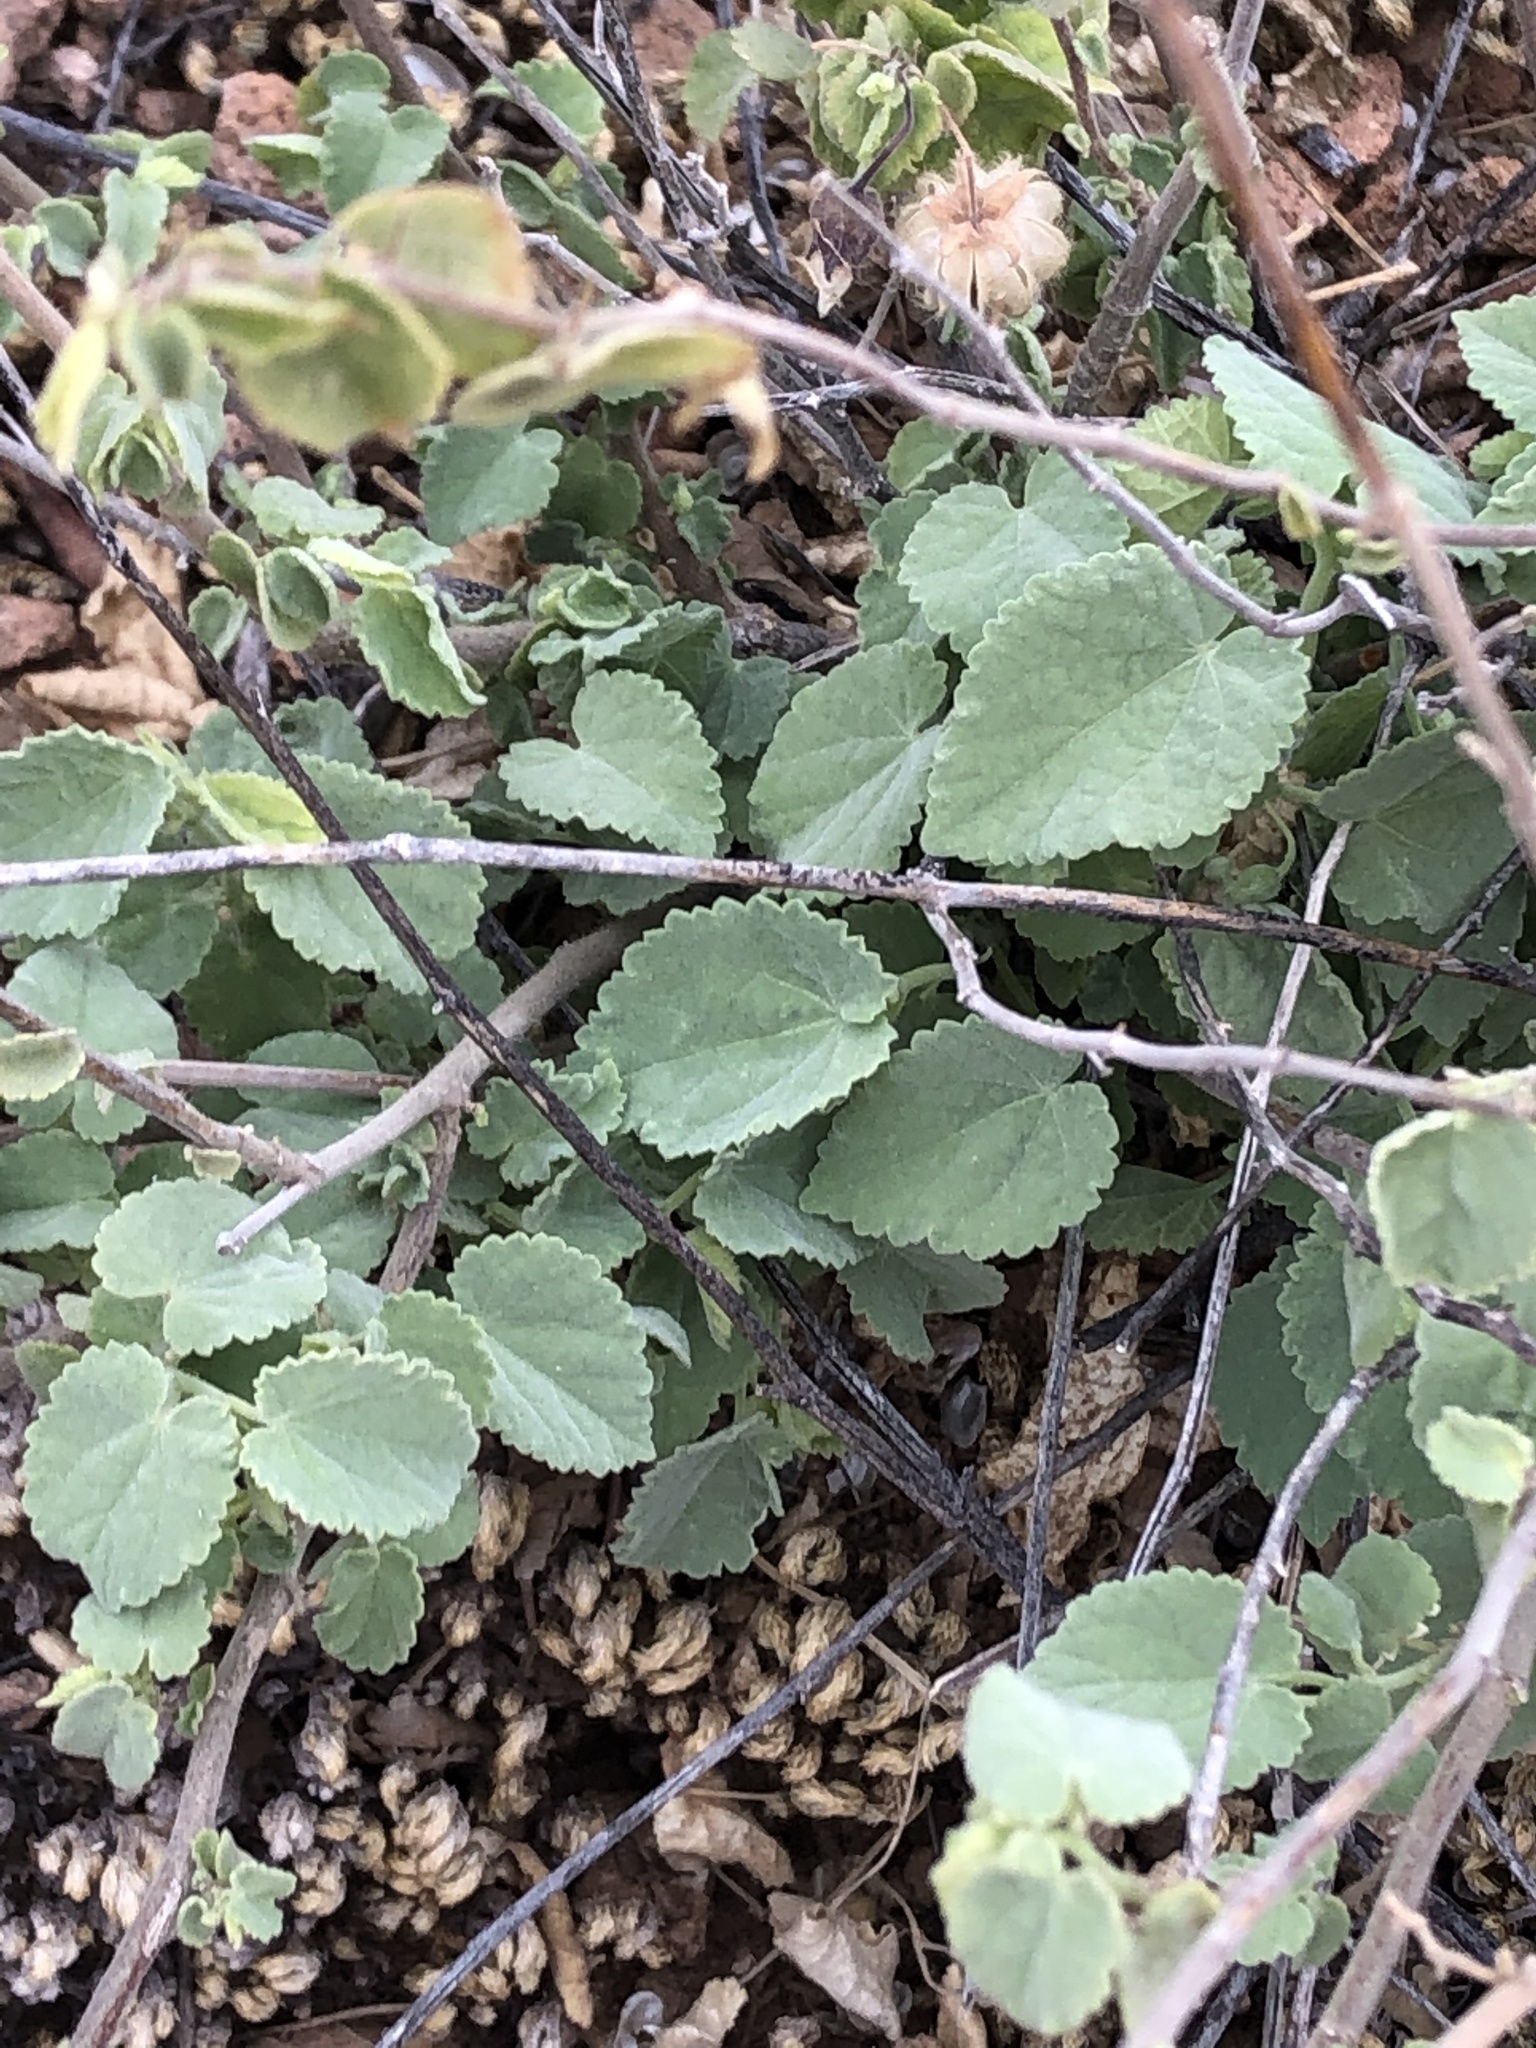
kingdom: Plantae
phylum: Tracheophyta
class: Magnoliopsida
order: Malvales
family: Malvaceae
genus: Herissantia
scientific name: Herissantia crispa
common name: Bladdermallow
